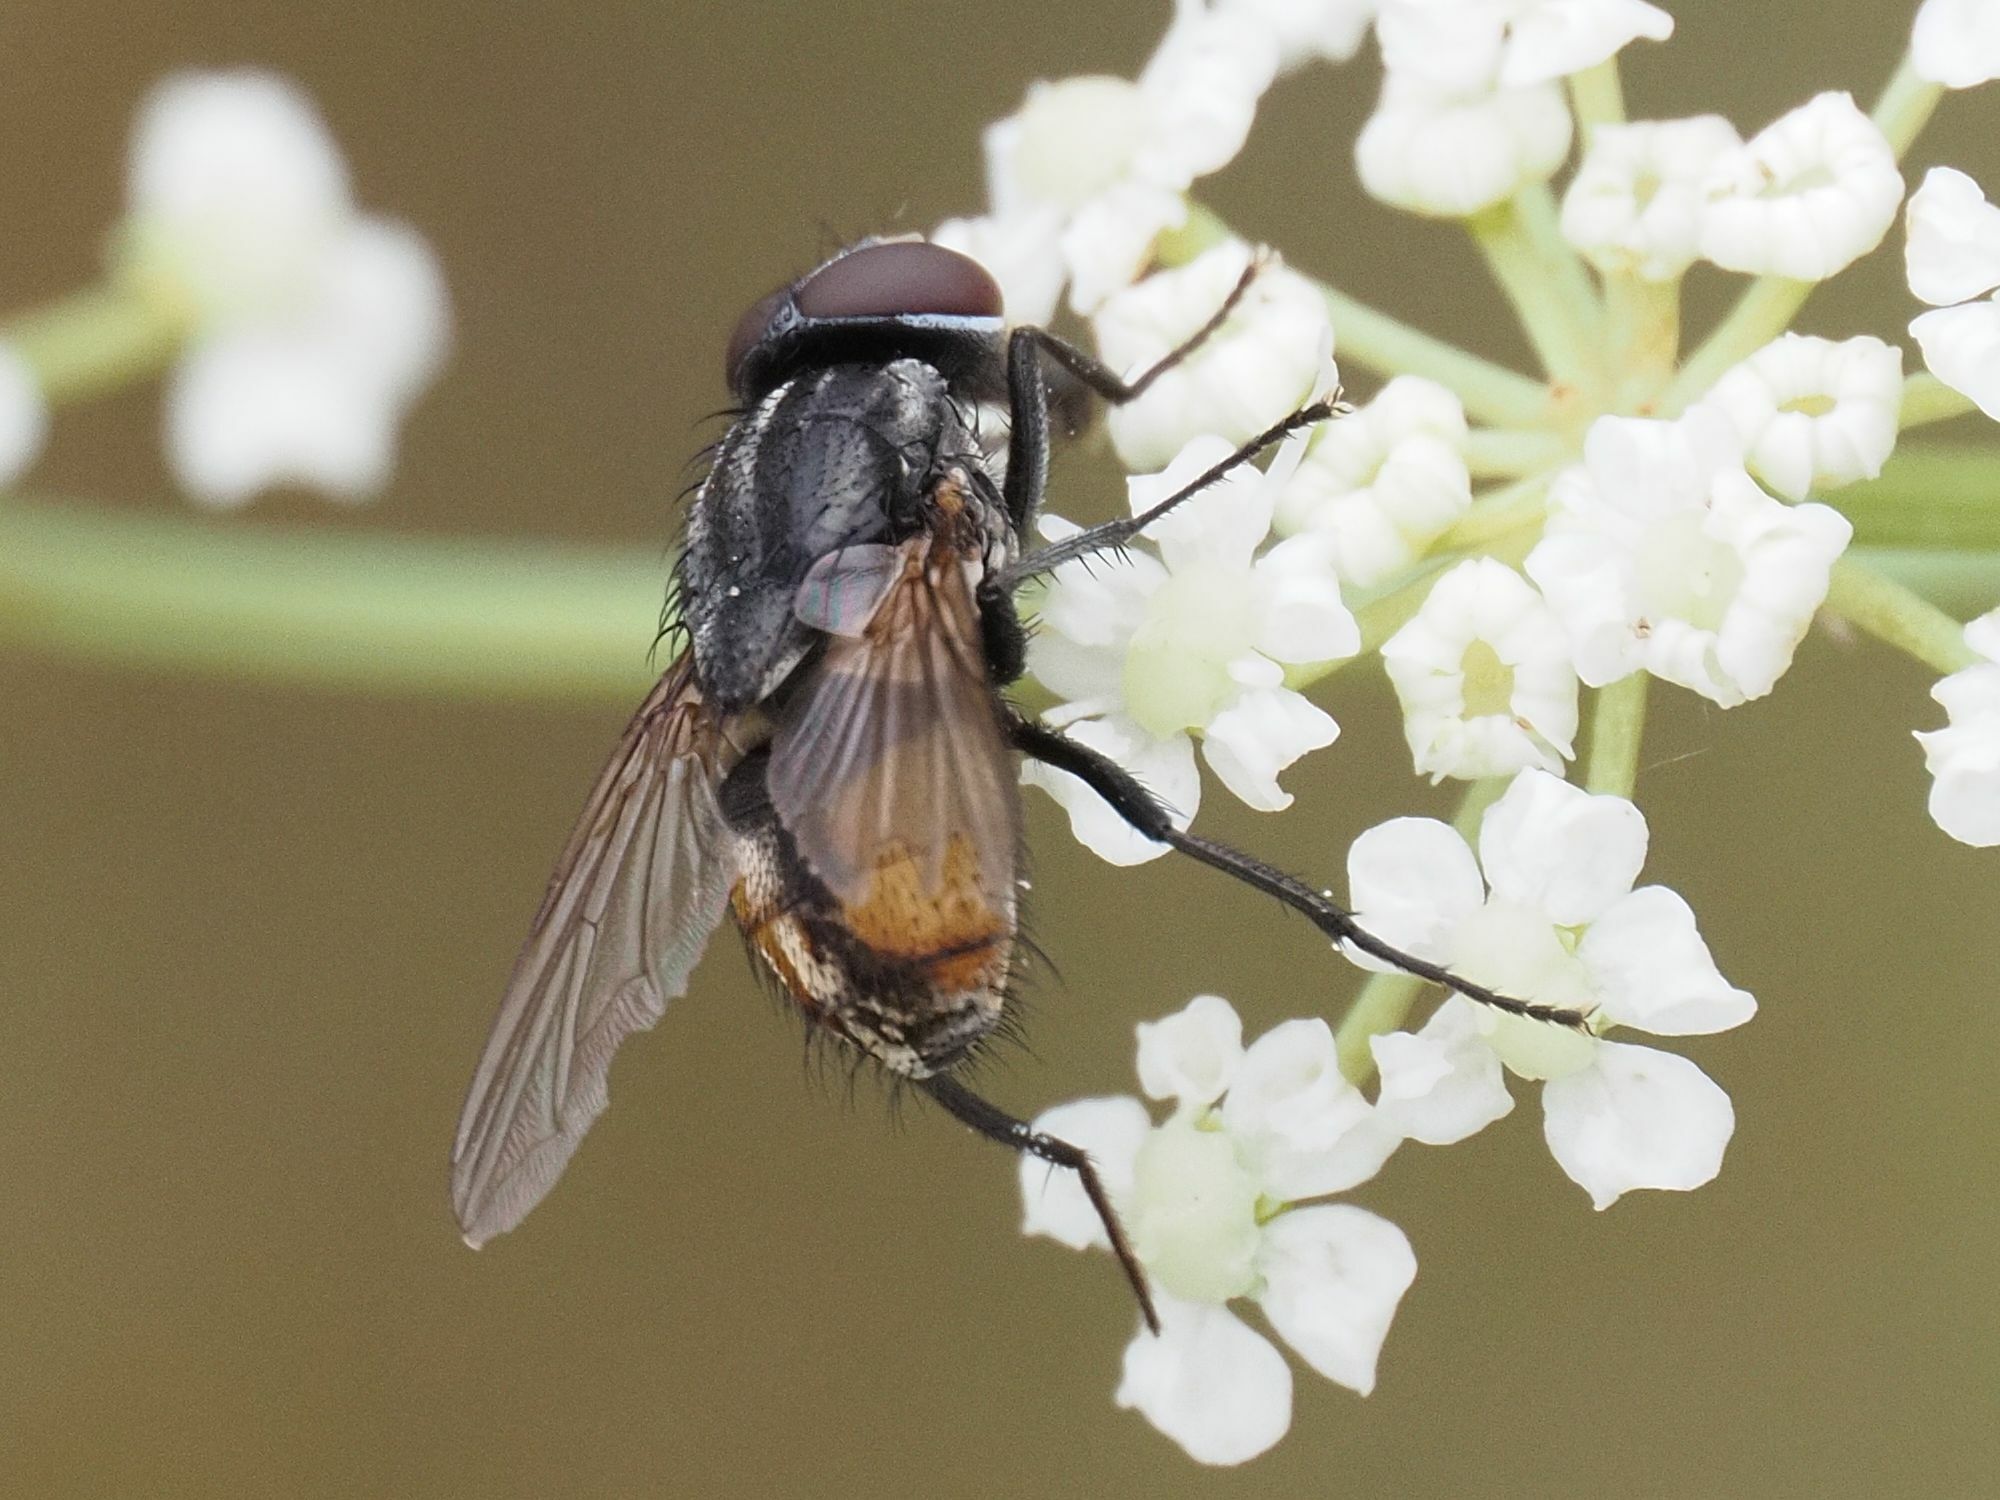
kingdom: Animalia
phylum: Arthropoda
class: Insecta
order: Diptera
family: Muscidae
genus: Musca
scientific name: Musca autumnalis
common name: Face fly
